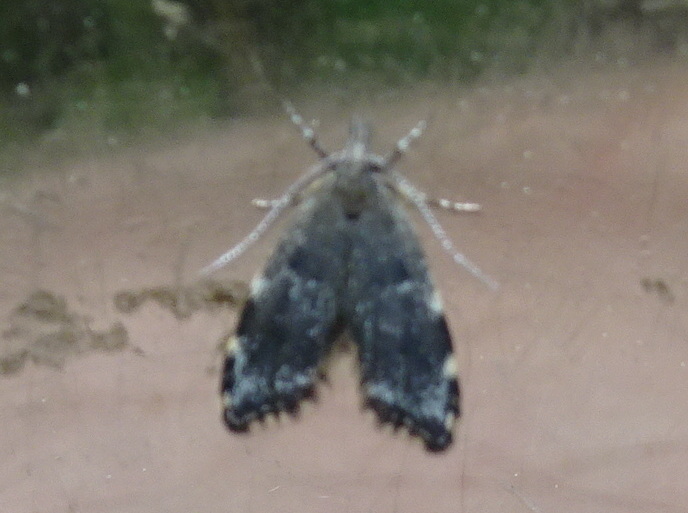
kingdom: Animalia
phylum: Arthropoda
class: Insecta
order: Lepidoptera
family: Oecophoridae
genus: Eido
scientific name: Eido trimaculella
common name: Three-spotted concealer
